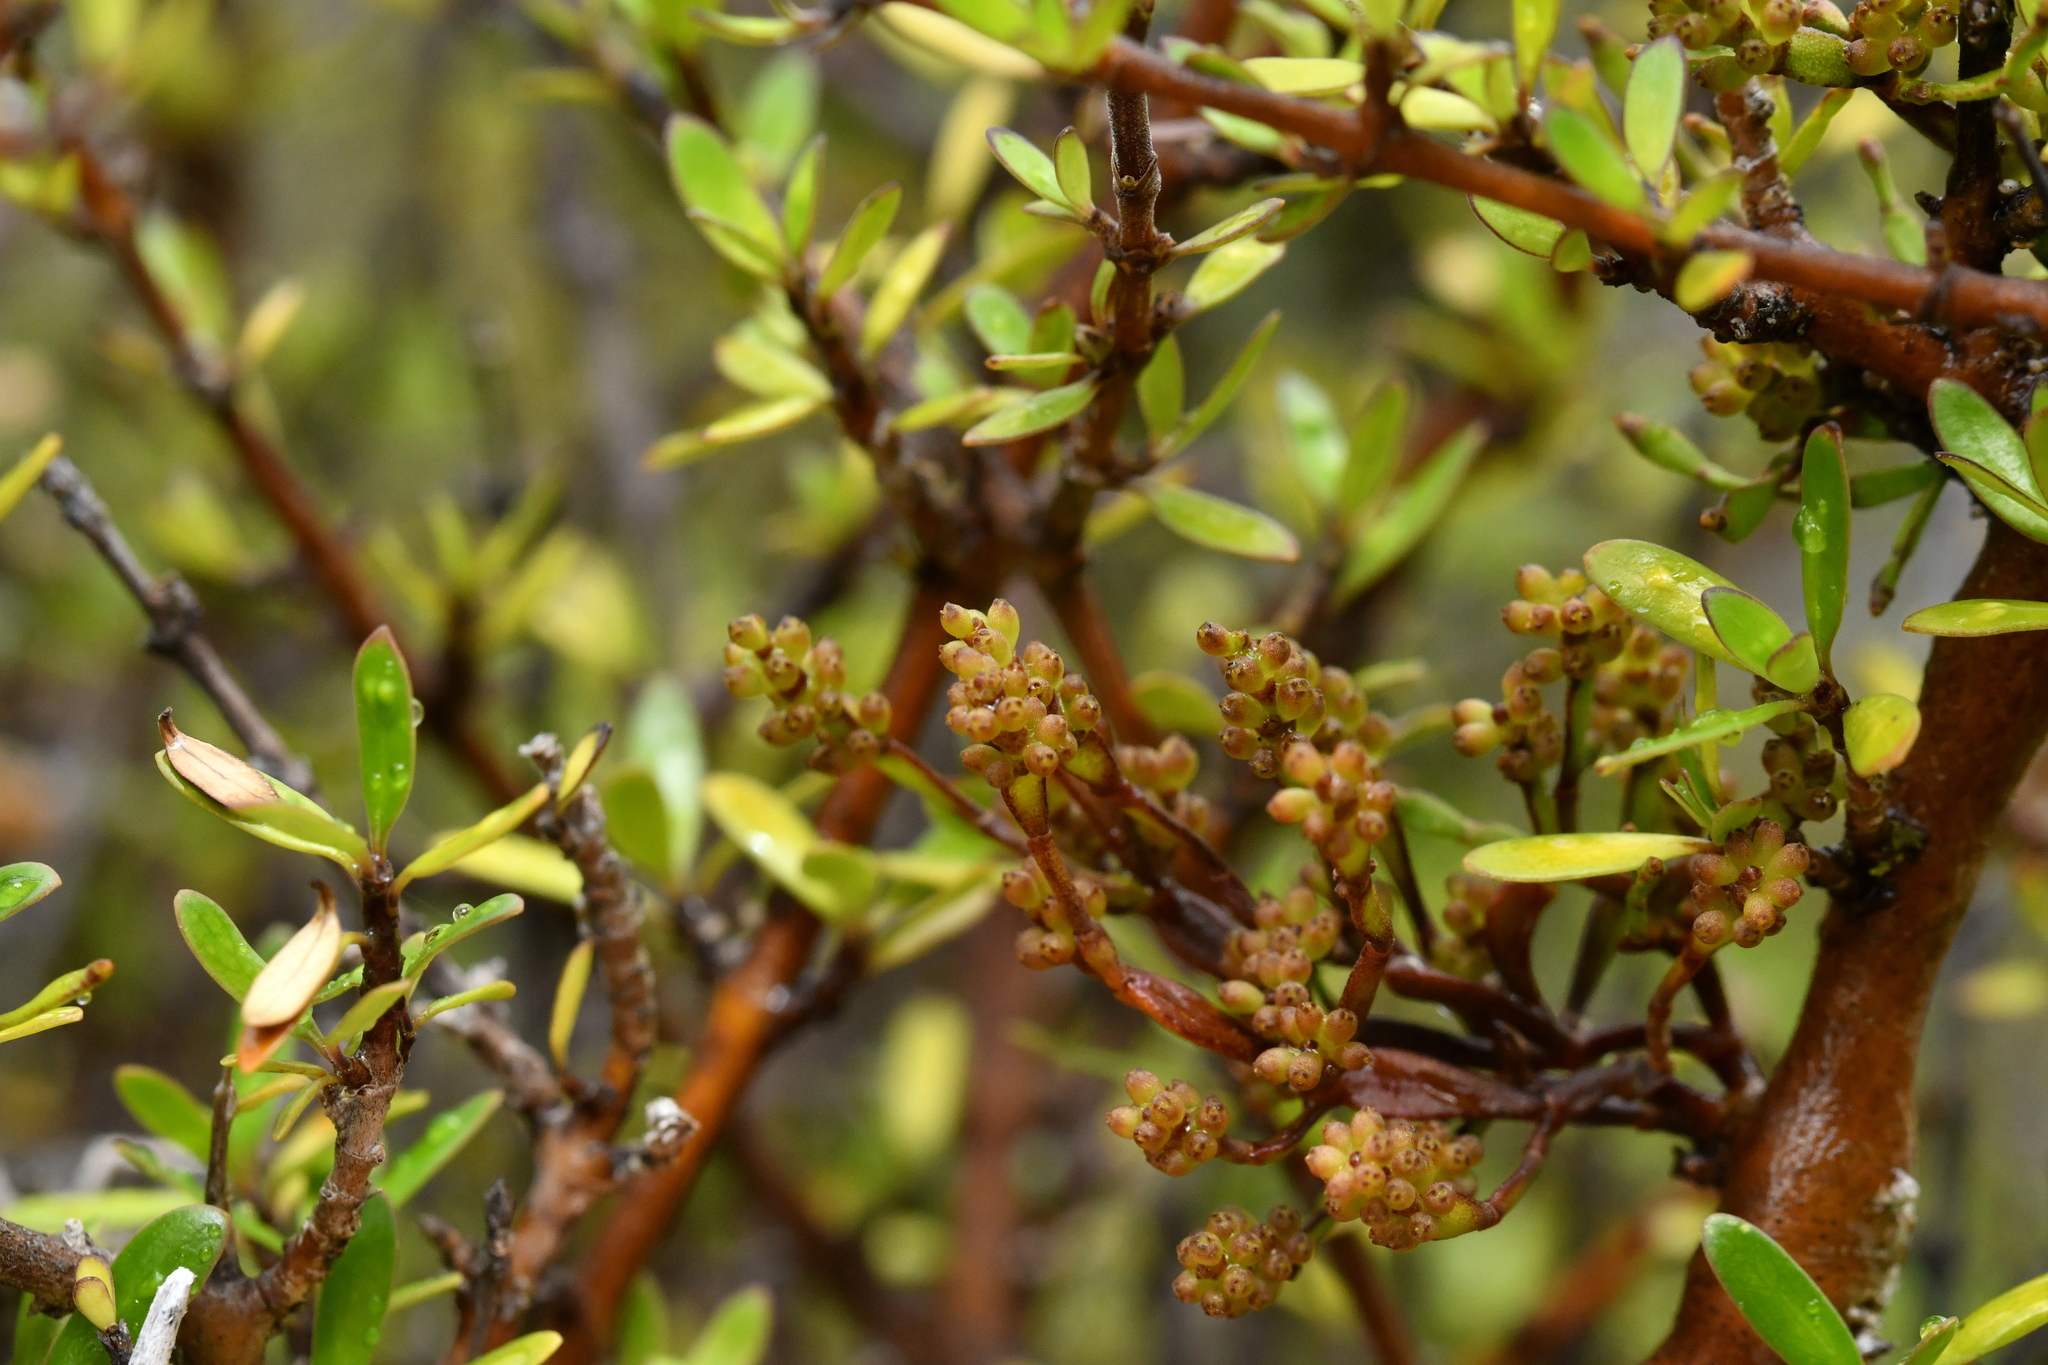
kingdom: Plantae
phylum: Tracheophyta
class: Magnoliopsida
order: Santalales
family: Viscaceae
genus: Korthalsella
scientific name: Korthalsella clavata
